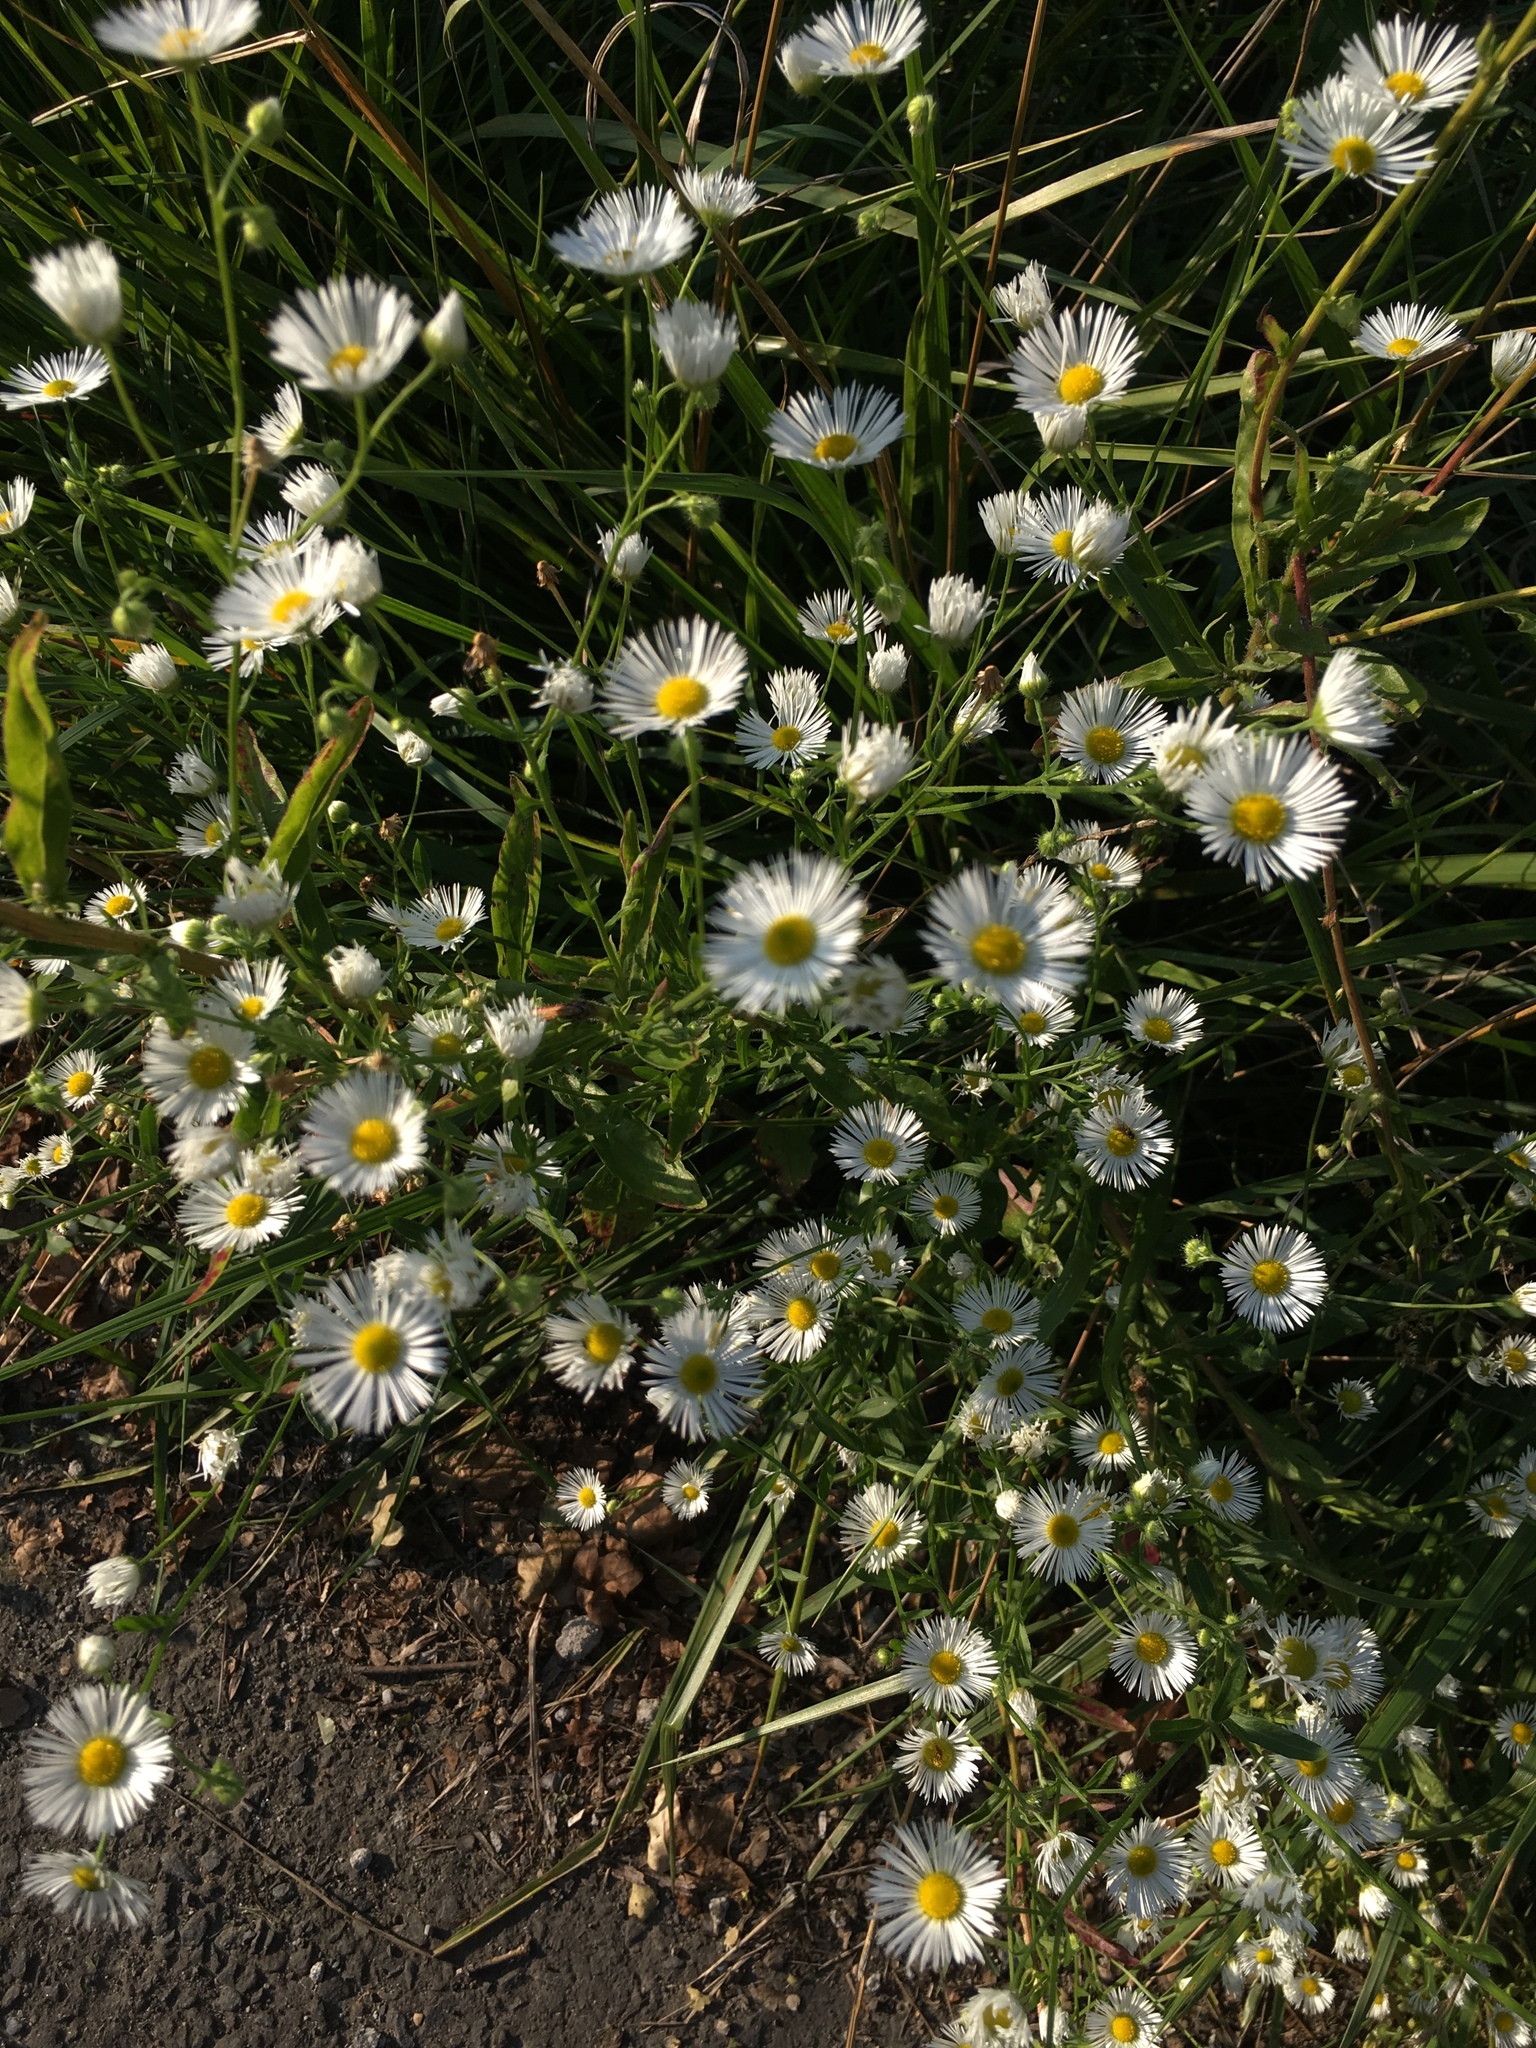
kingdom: Plantae
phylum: Tracheophyta
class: Magnoliopsida
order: Asterales
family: Asteraceae
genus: Erigeron
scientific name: Erigeron annuus
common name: Tall fleabane
